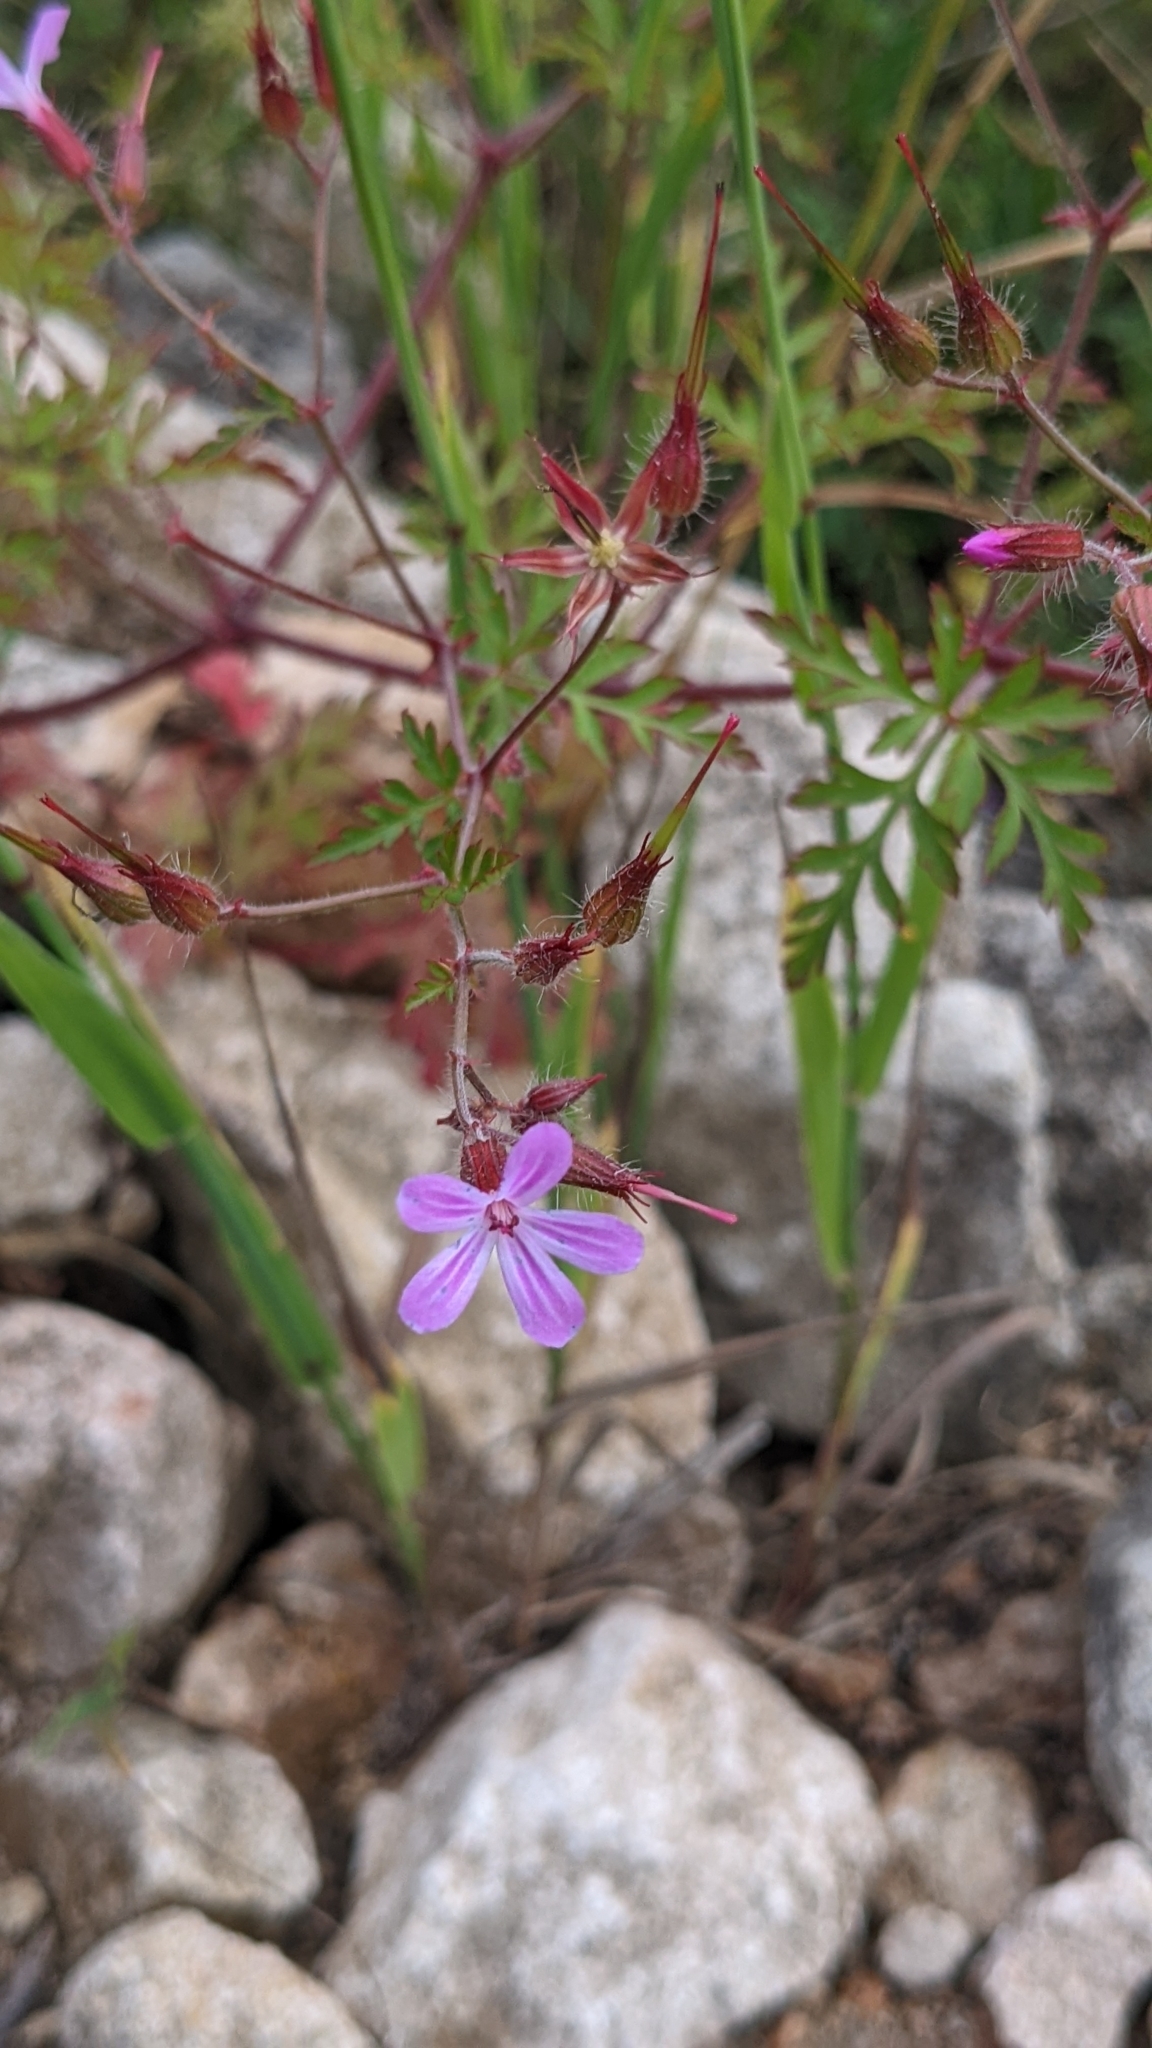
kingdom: Plantae
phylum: Tracheophyta
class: Magnoliopsida
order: Geraniales
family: Geraniaceae
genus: Geranium
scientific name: Geranium robertianum
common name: Herb-robert
